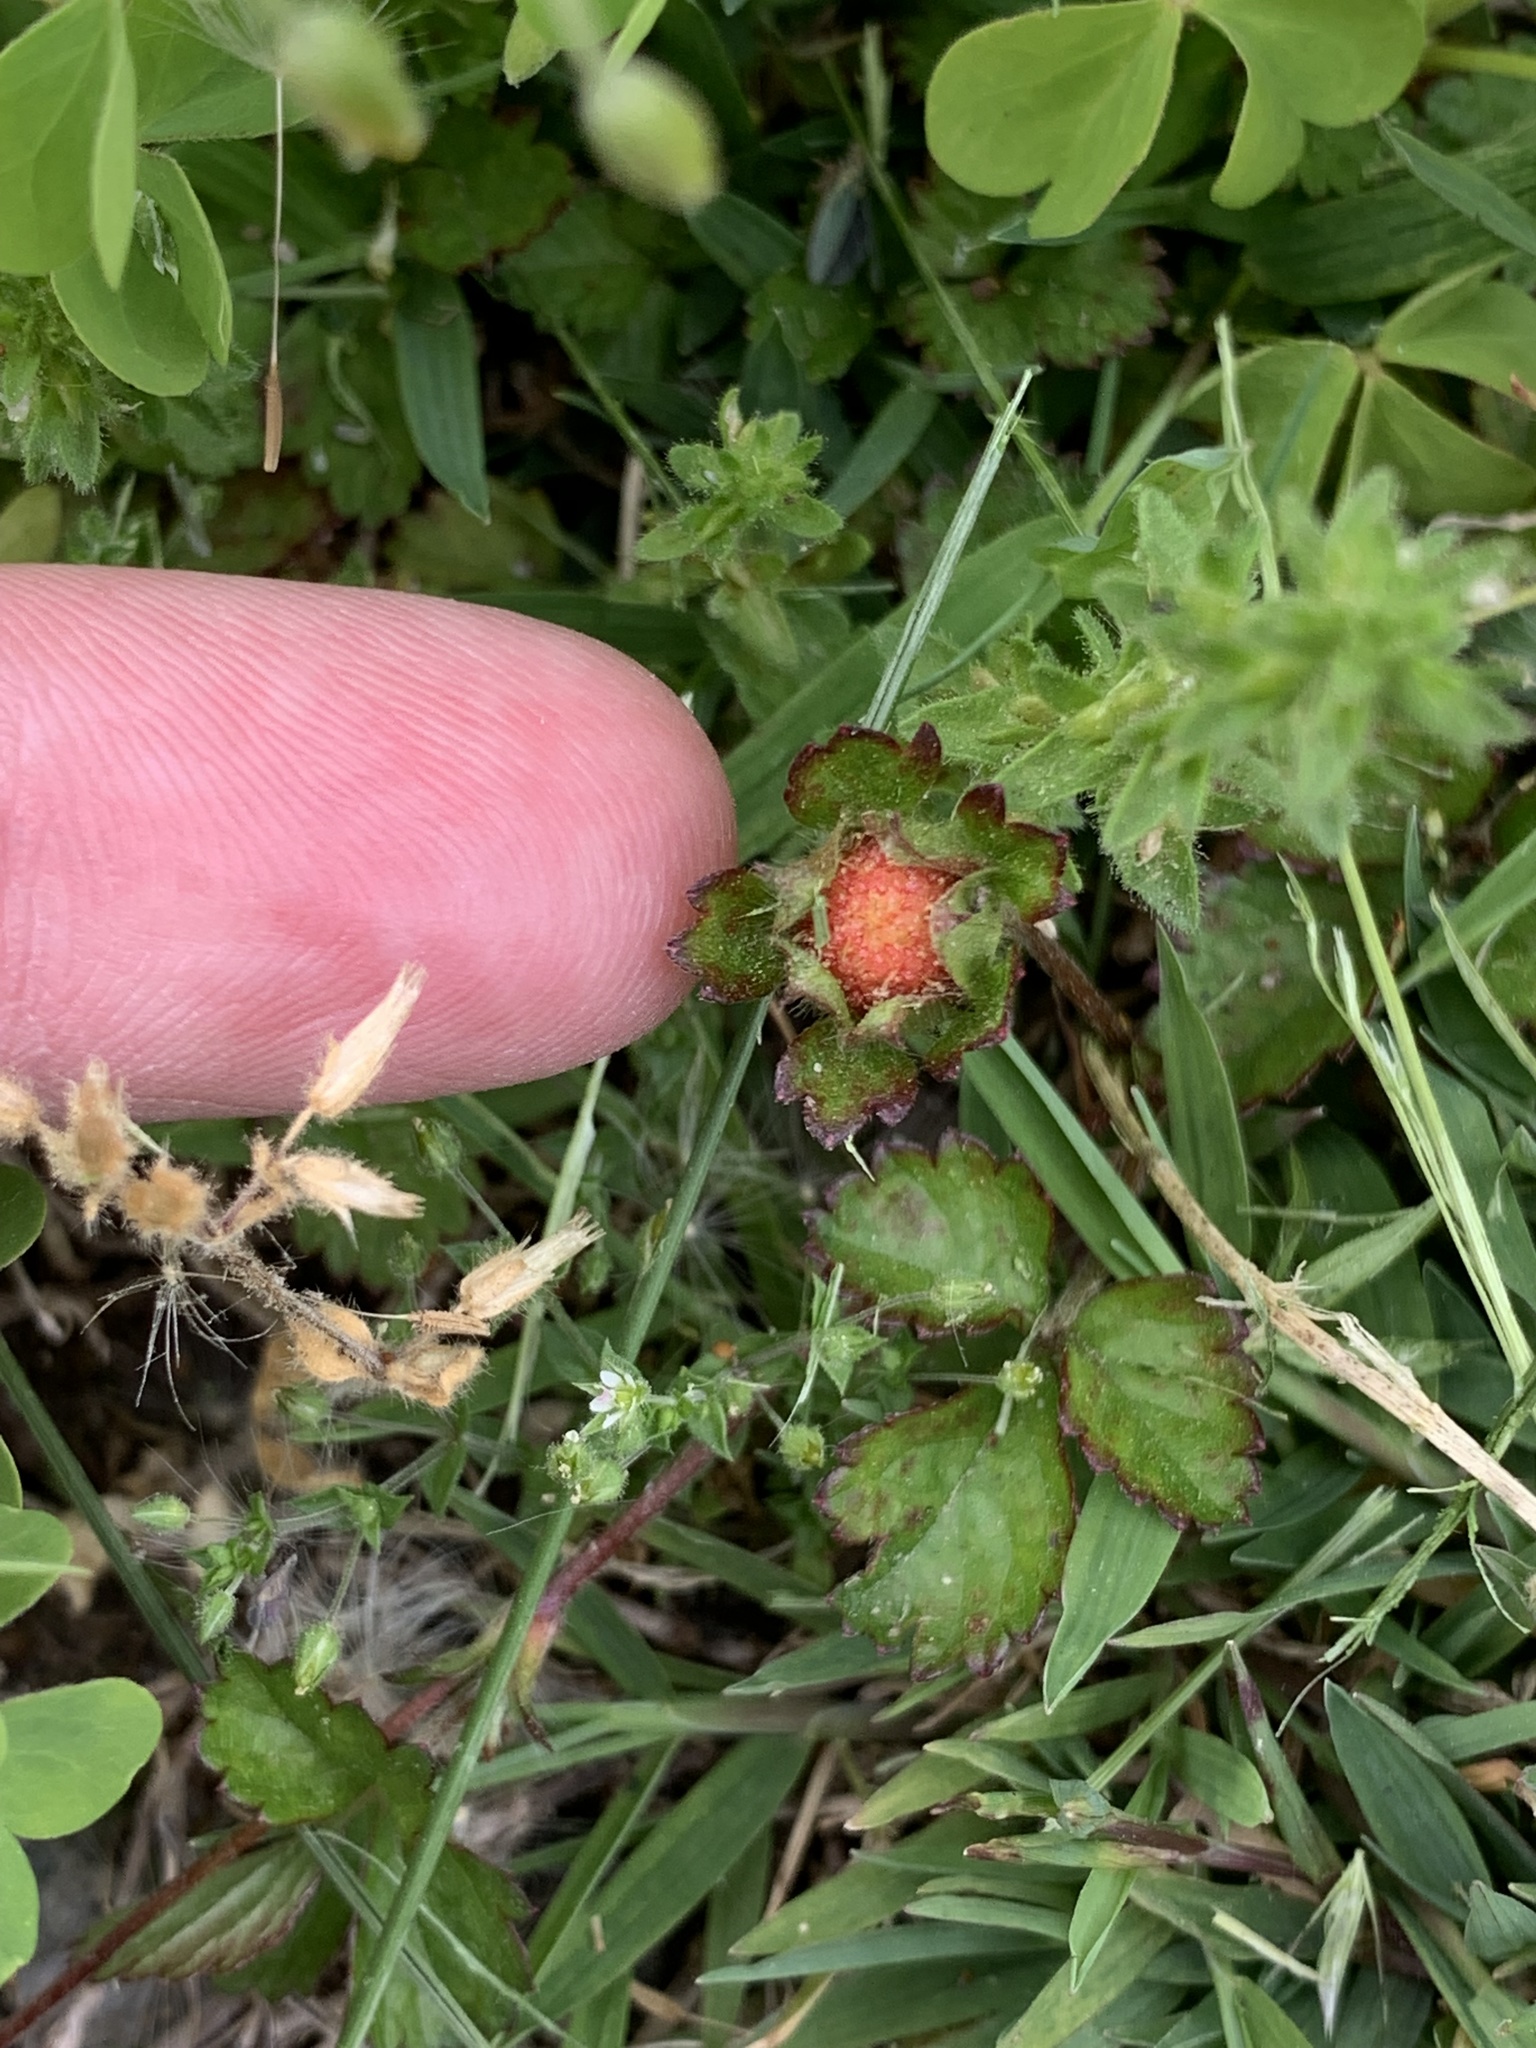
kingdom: Plantae
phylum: Tracheophyta
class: Magnoliopsida
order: Rosales
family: Rosaceae
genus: Potentilla
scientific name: Potentilla indica
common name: Yellow-flowered strawberry
